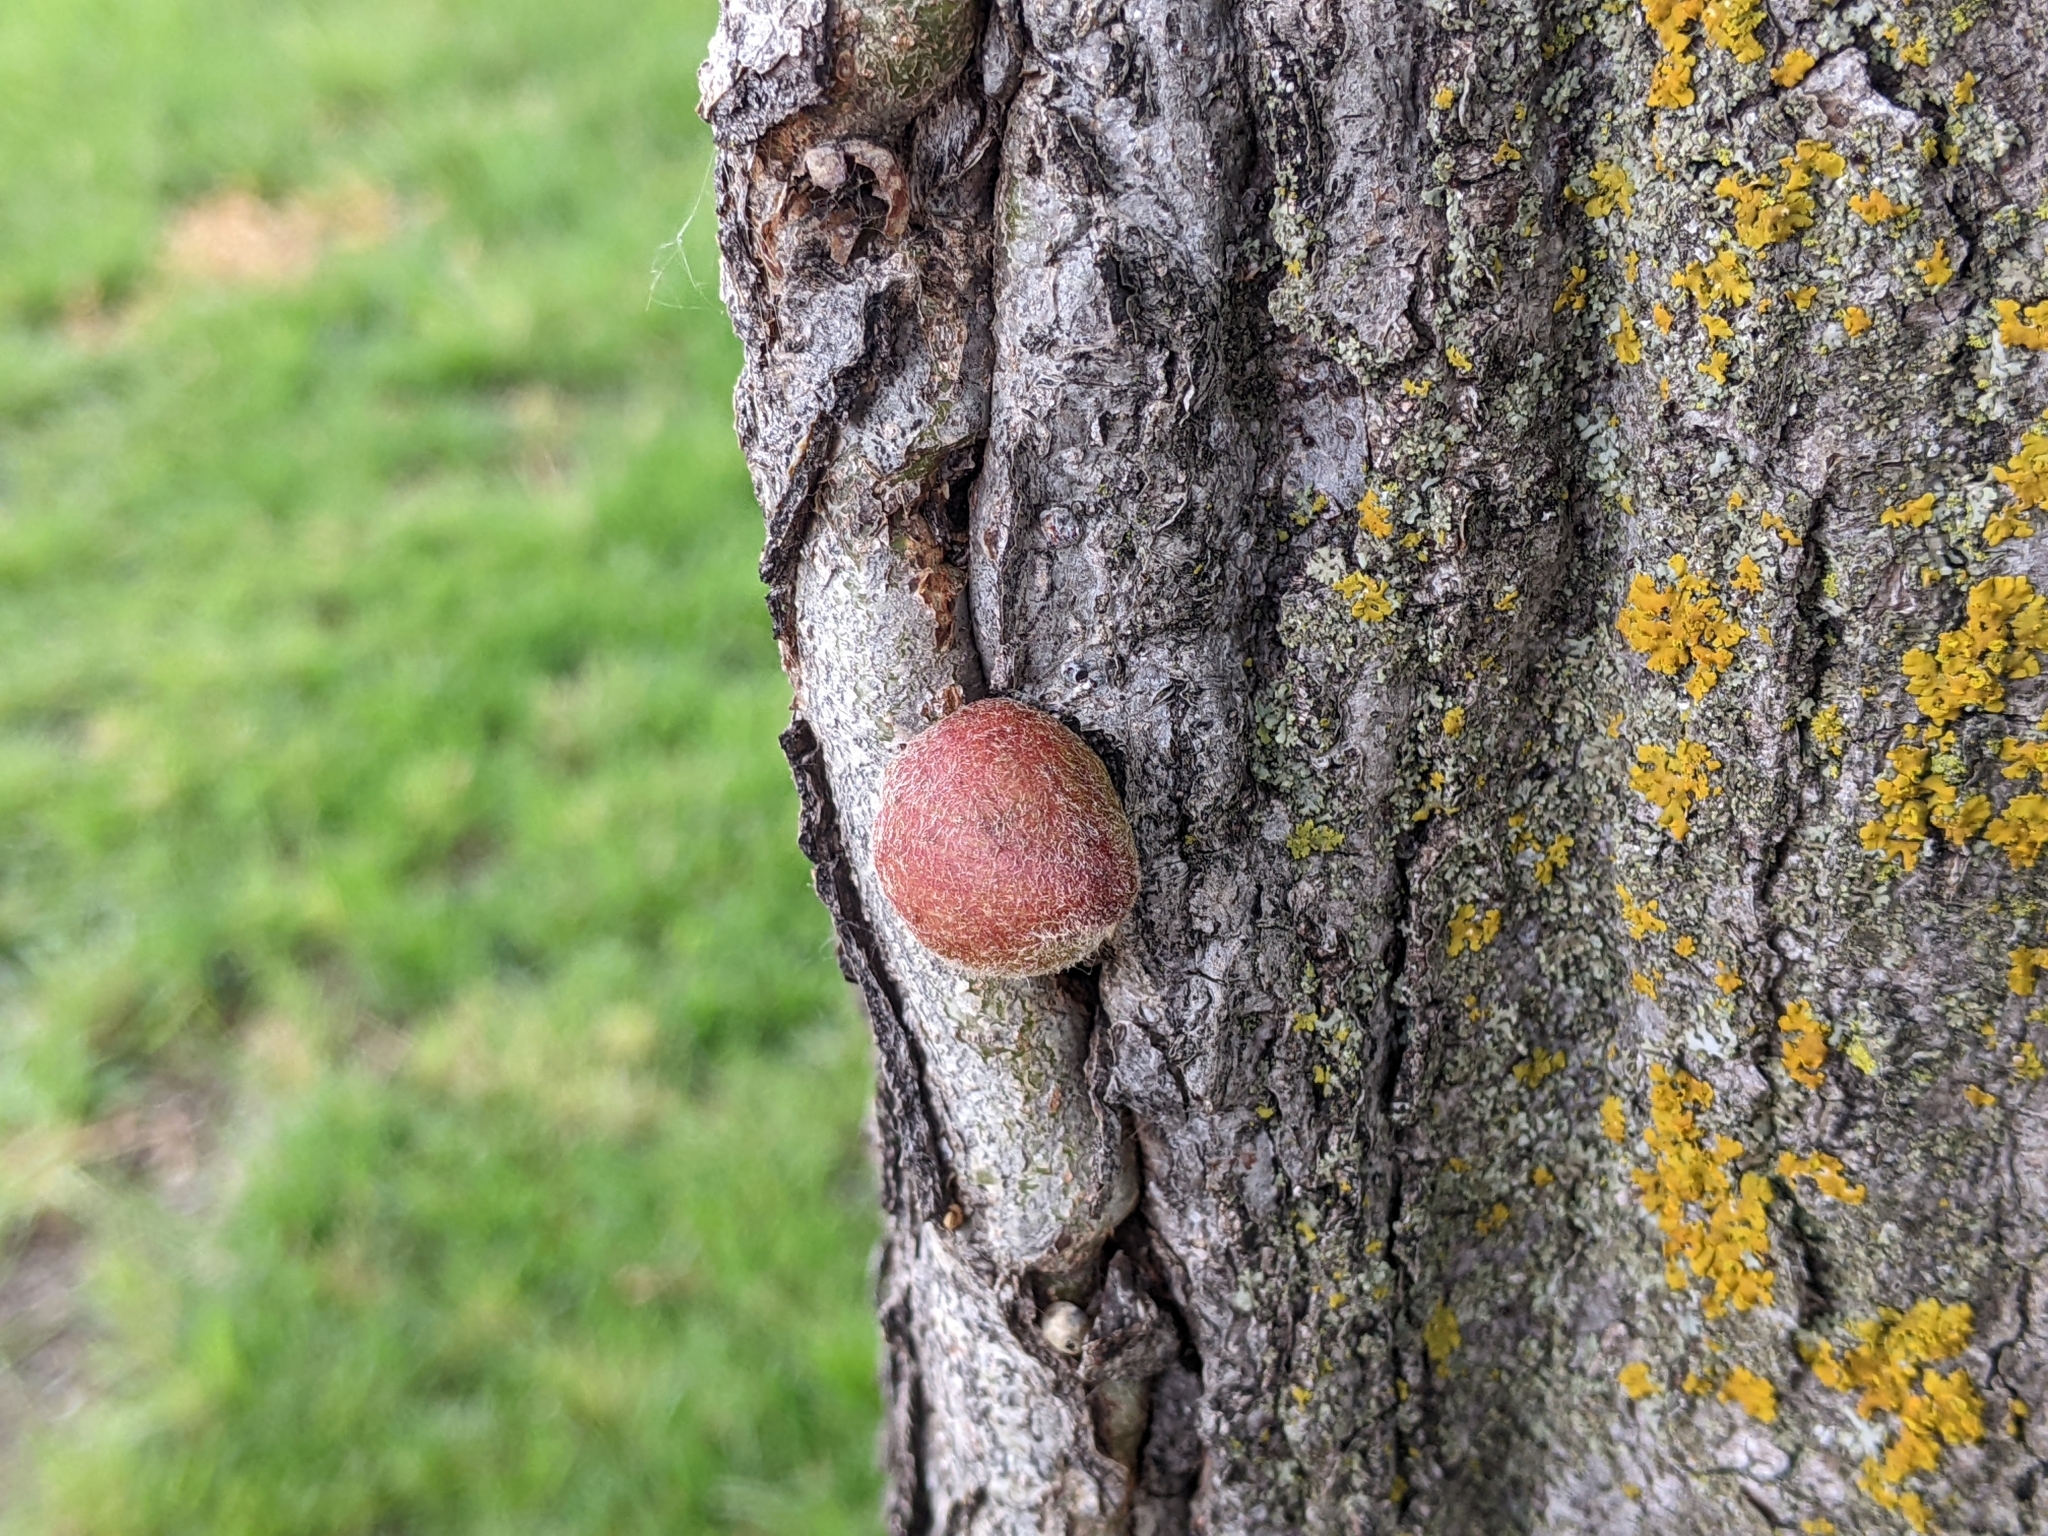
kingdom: Animalia
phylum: Arthropoda
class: Insecta
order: Hymenoptera
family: Cynipidae
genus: Callirhytis
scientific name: Callirhytis
